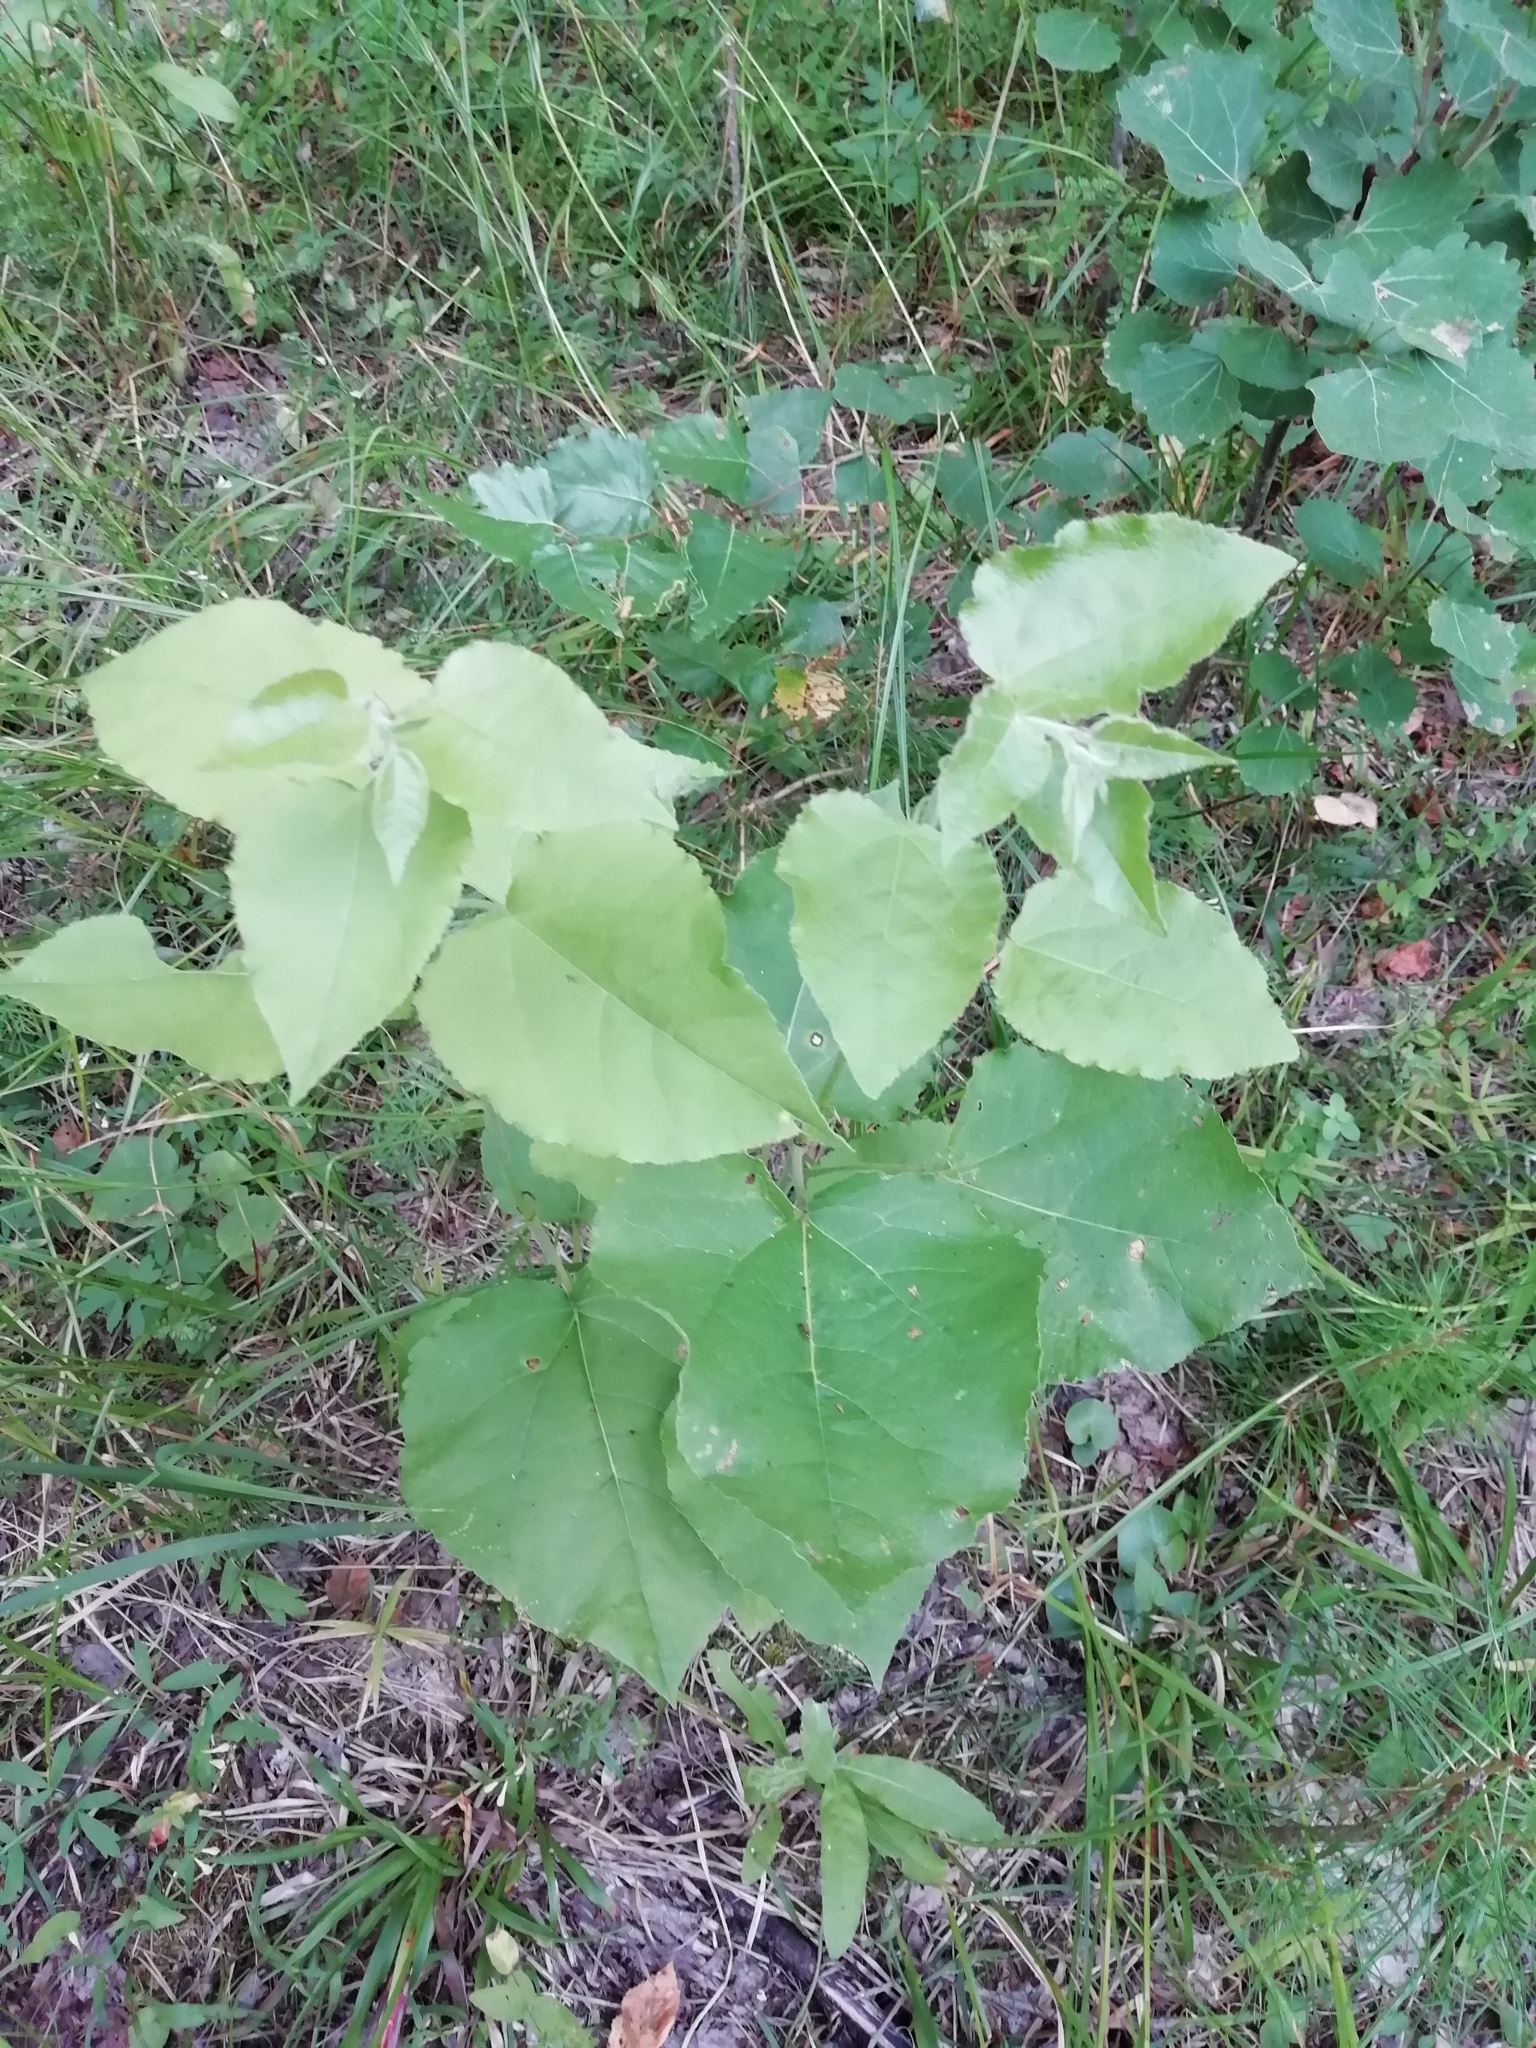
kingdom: Plantae
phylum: Tracheophyta
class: Magnoliopsida
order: Malpighiales
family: Salicaceae
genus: Populus
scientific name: Populus tremula
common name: European aspen
